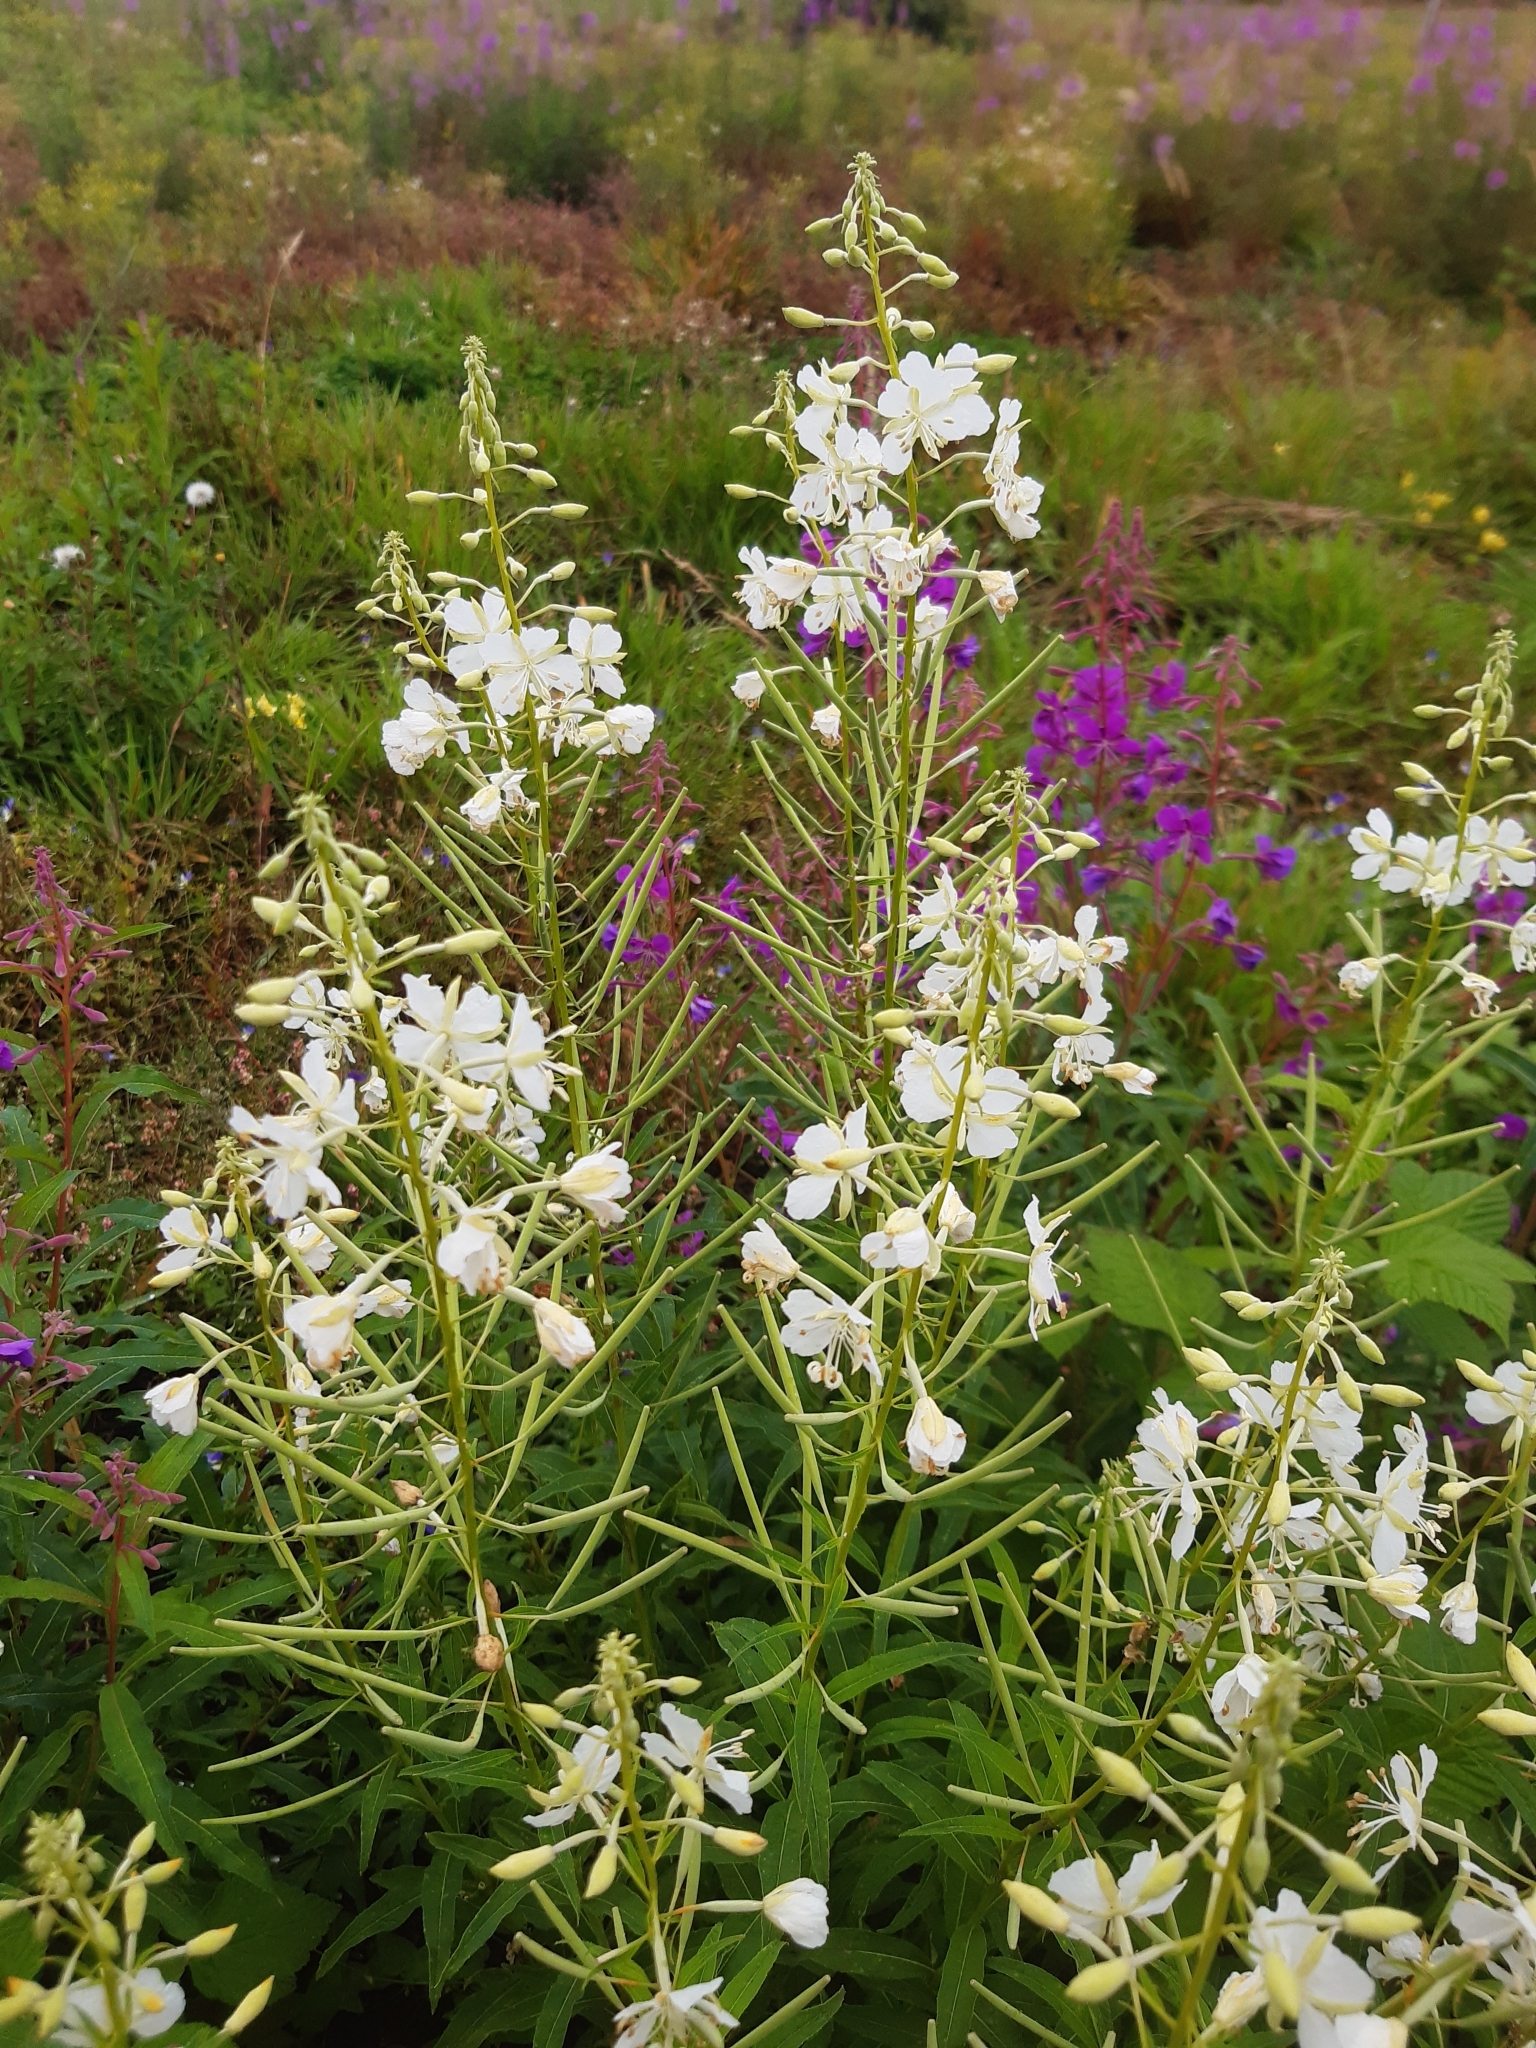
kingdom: Plantae
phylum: Tracheophyta
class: Magnoliopsida
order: Myrtales
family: Onagraceae
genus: Chamaenerion
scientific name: Chamaenerion angustifolium
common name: Fireweed
